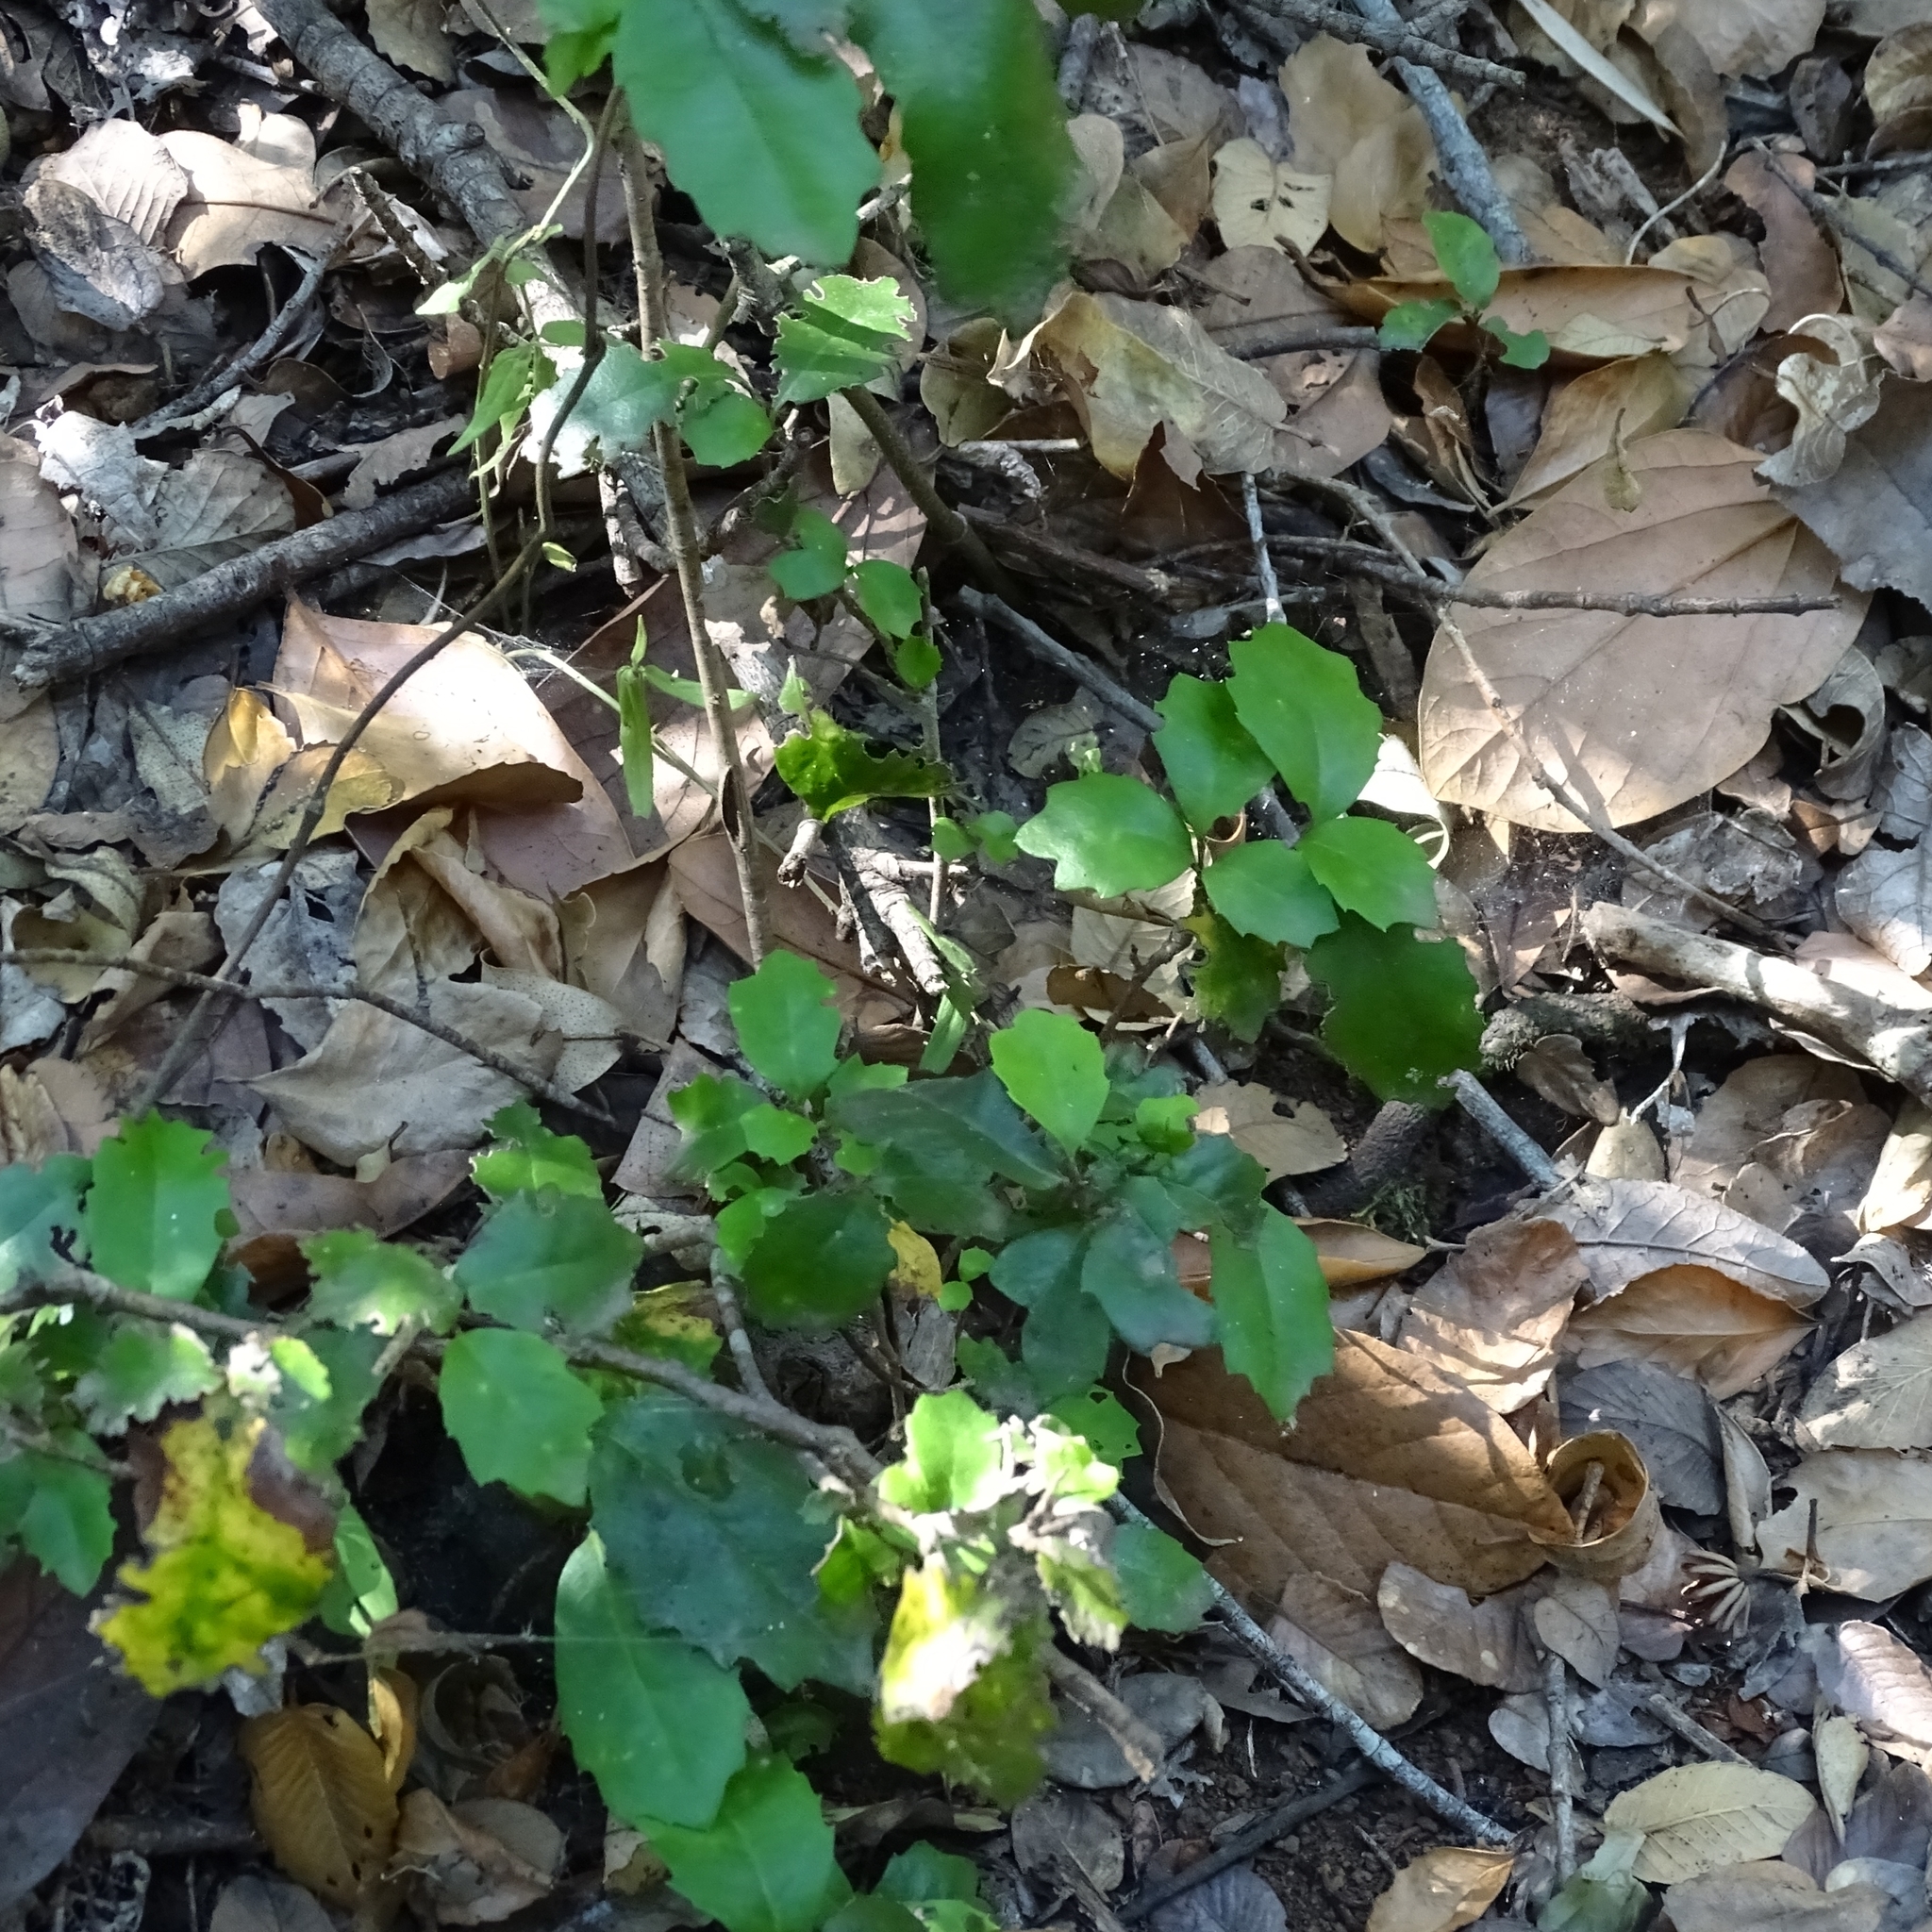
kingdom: Plantae
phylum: Tracheophyta
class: Magnoliopsida
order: Proteales
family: Proteaceae
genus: Lomatia
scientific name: Lomatia dentata
